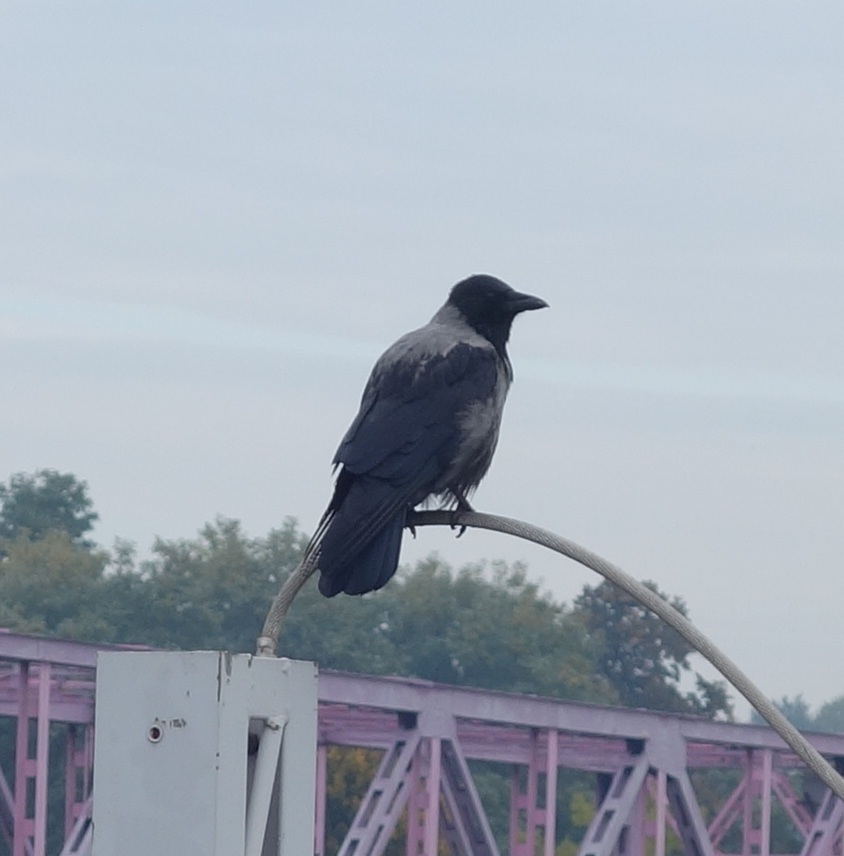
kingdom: Animalia
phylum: Chordata
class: Aves
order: Passeriformes
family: Corvidae
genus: Corvus
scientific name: Corvus cornix
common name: Hooded crow
